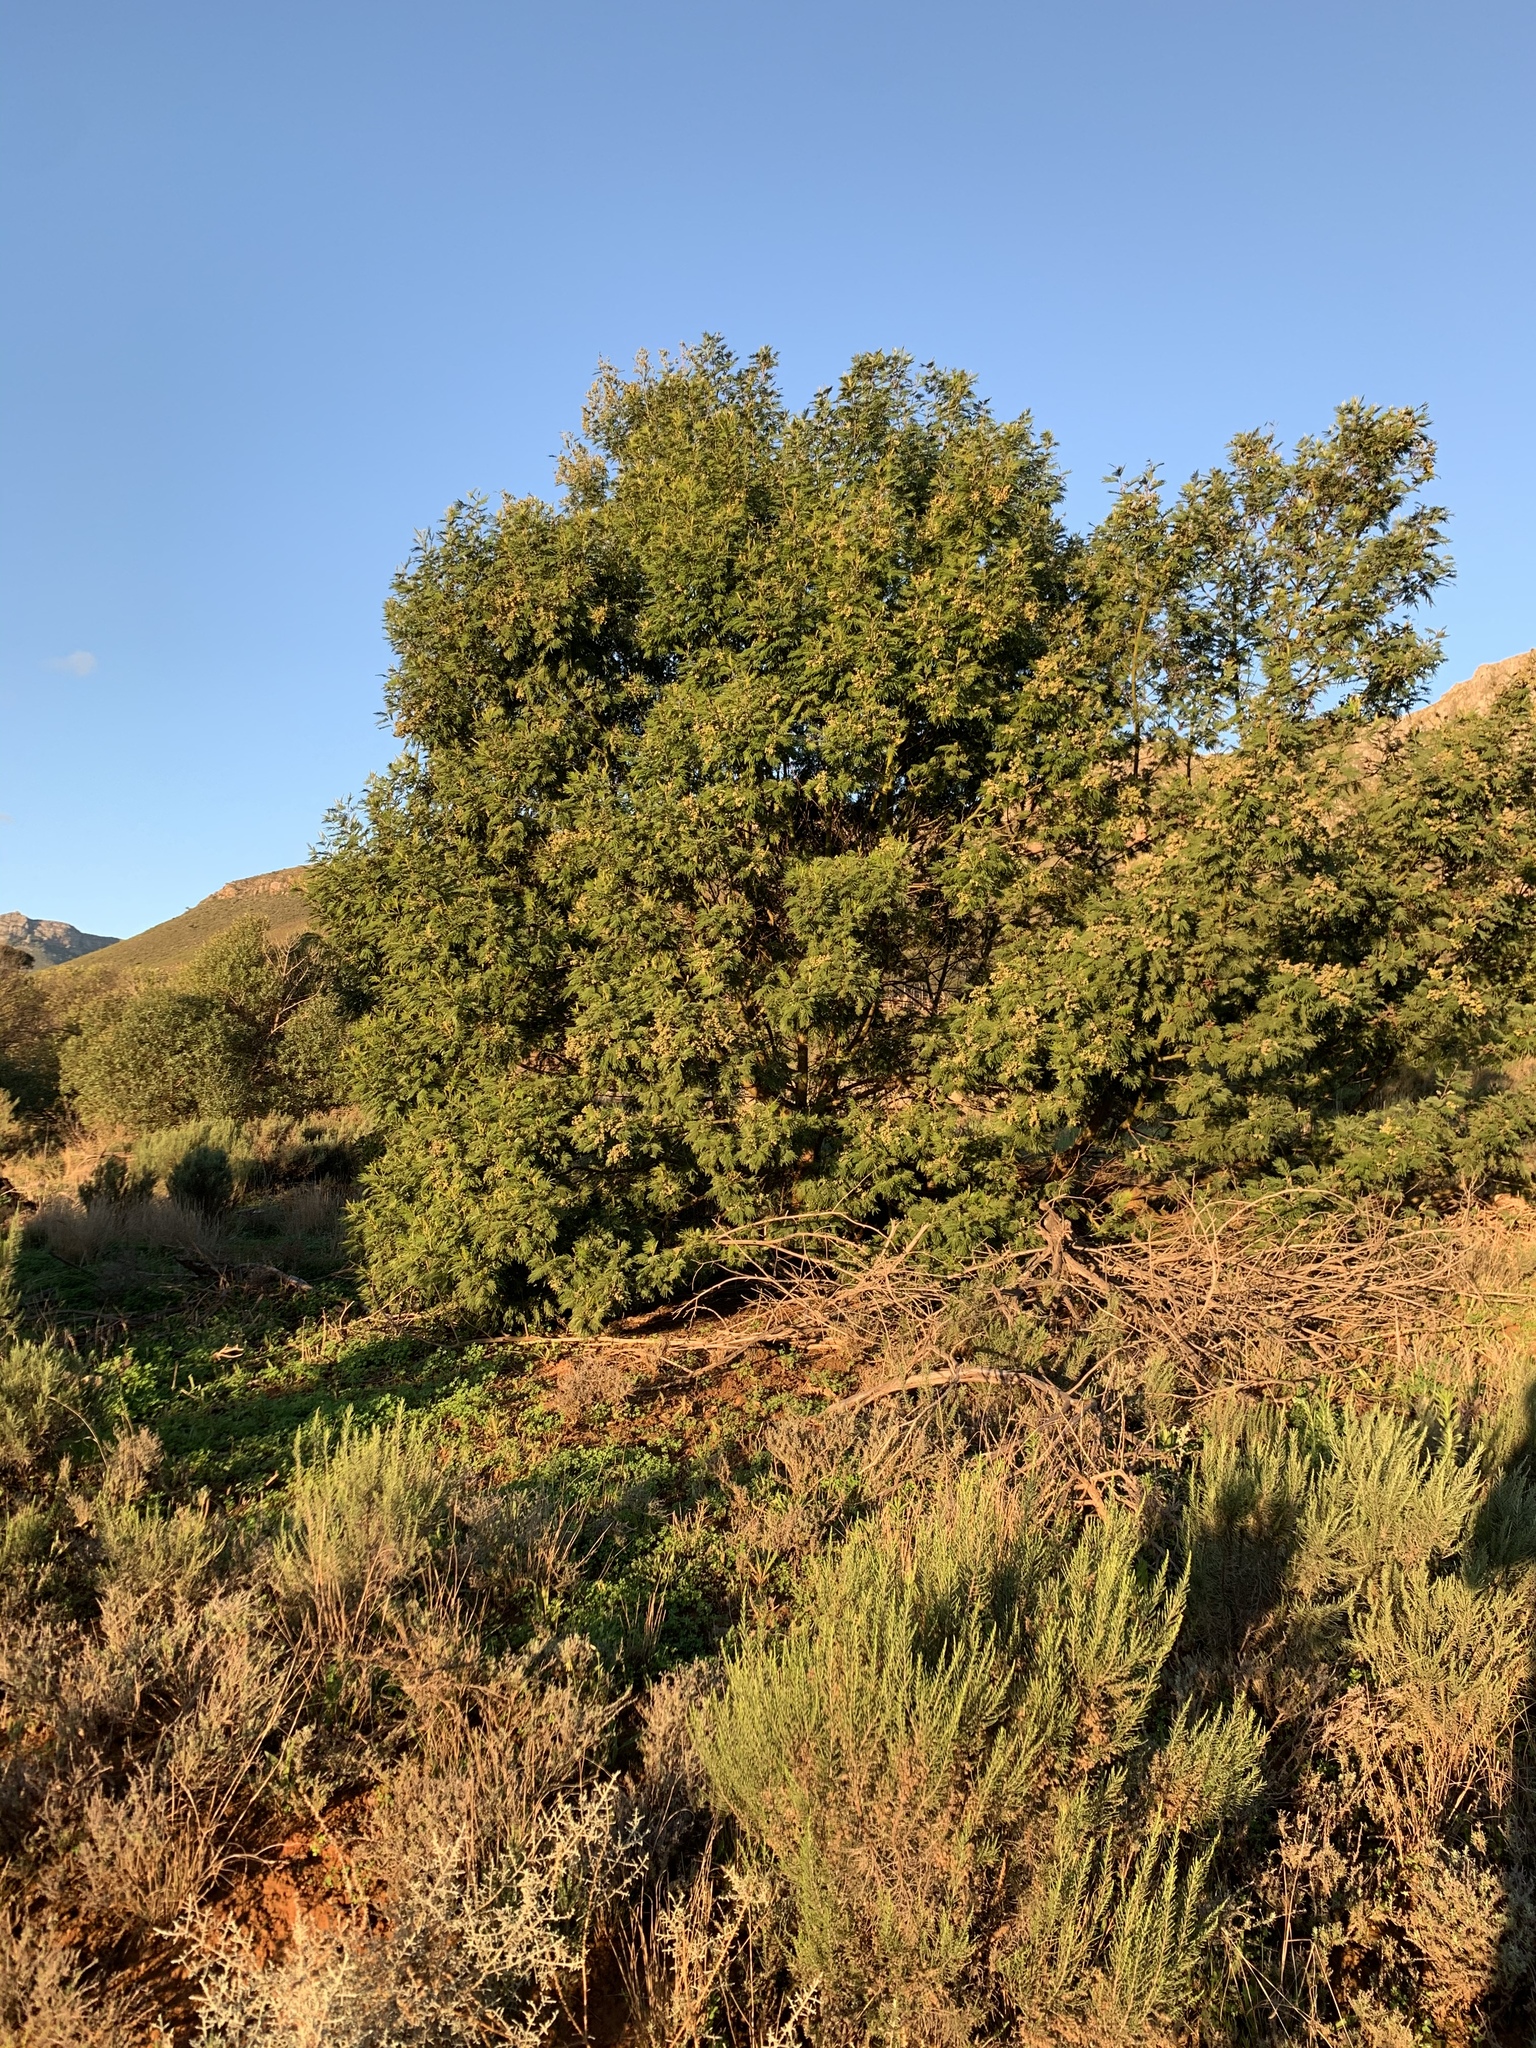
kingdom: Plantae
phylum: Tracheophyta
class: Magnoliopsida
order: Fabales
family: Fabaceae
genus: Acacia
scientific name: Acacia mearnsii
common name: Black wattle
